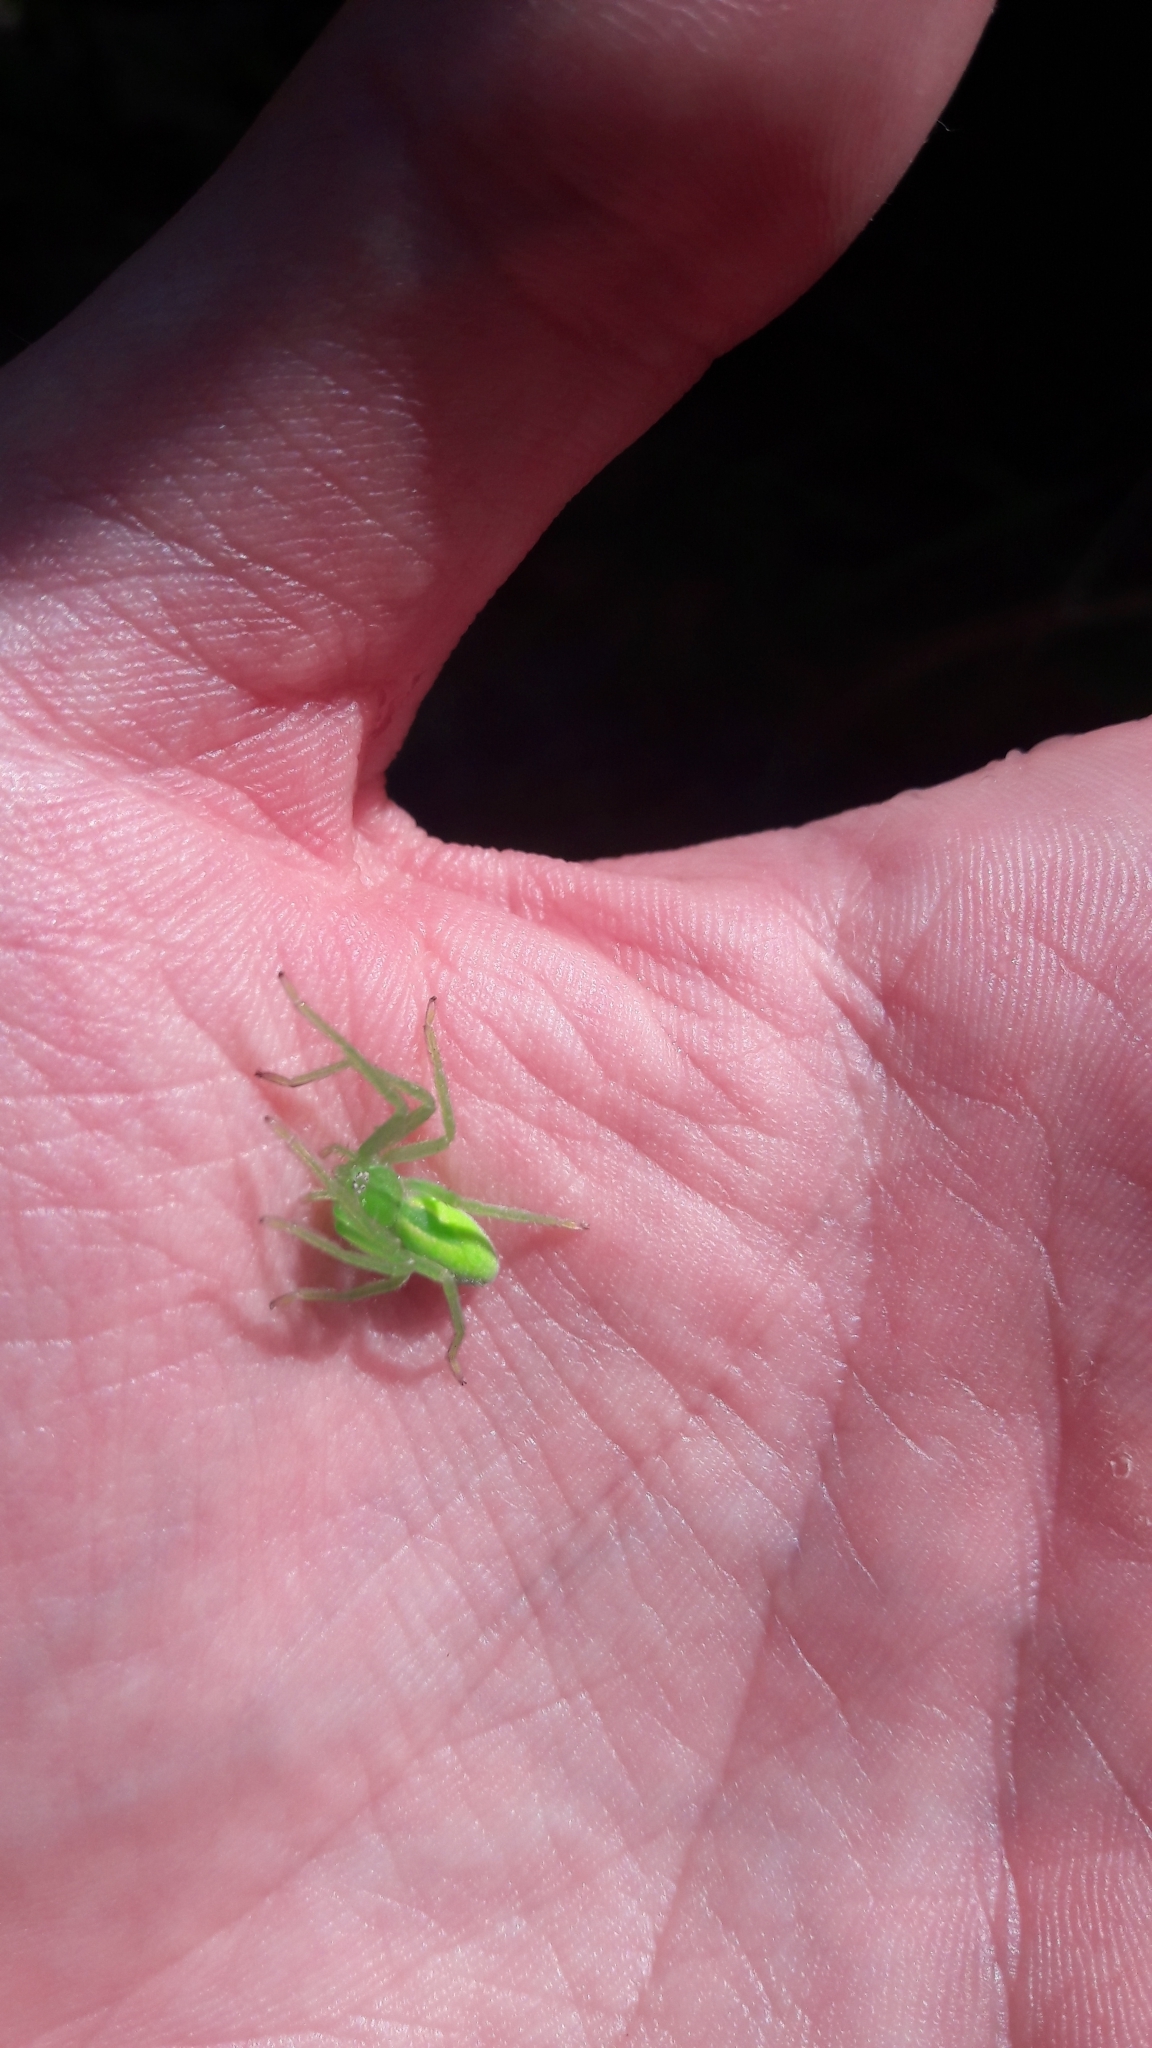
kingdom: Animalia
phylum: Arthropoda
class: Arachnida
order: Araneae
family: Sparassidae
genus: Micrommata
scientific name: Micrommata virescens
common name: Green spider
